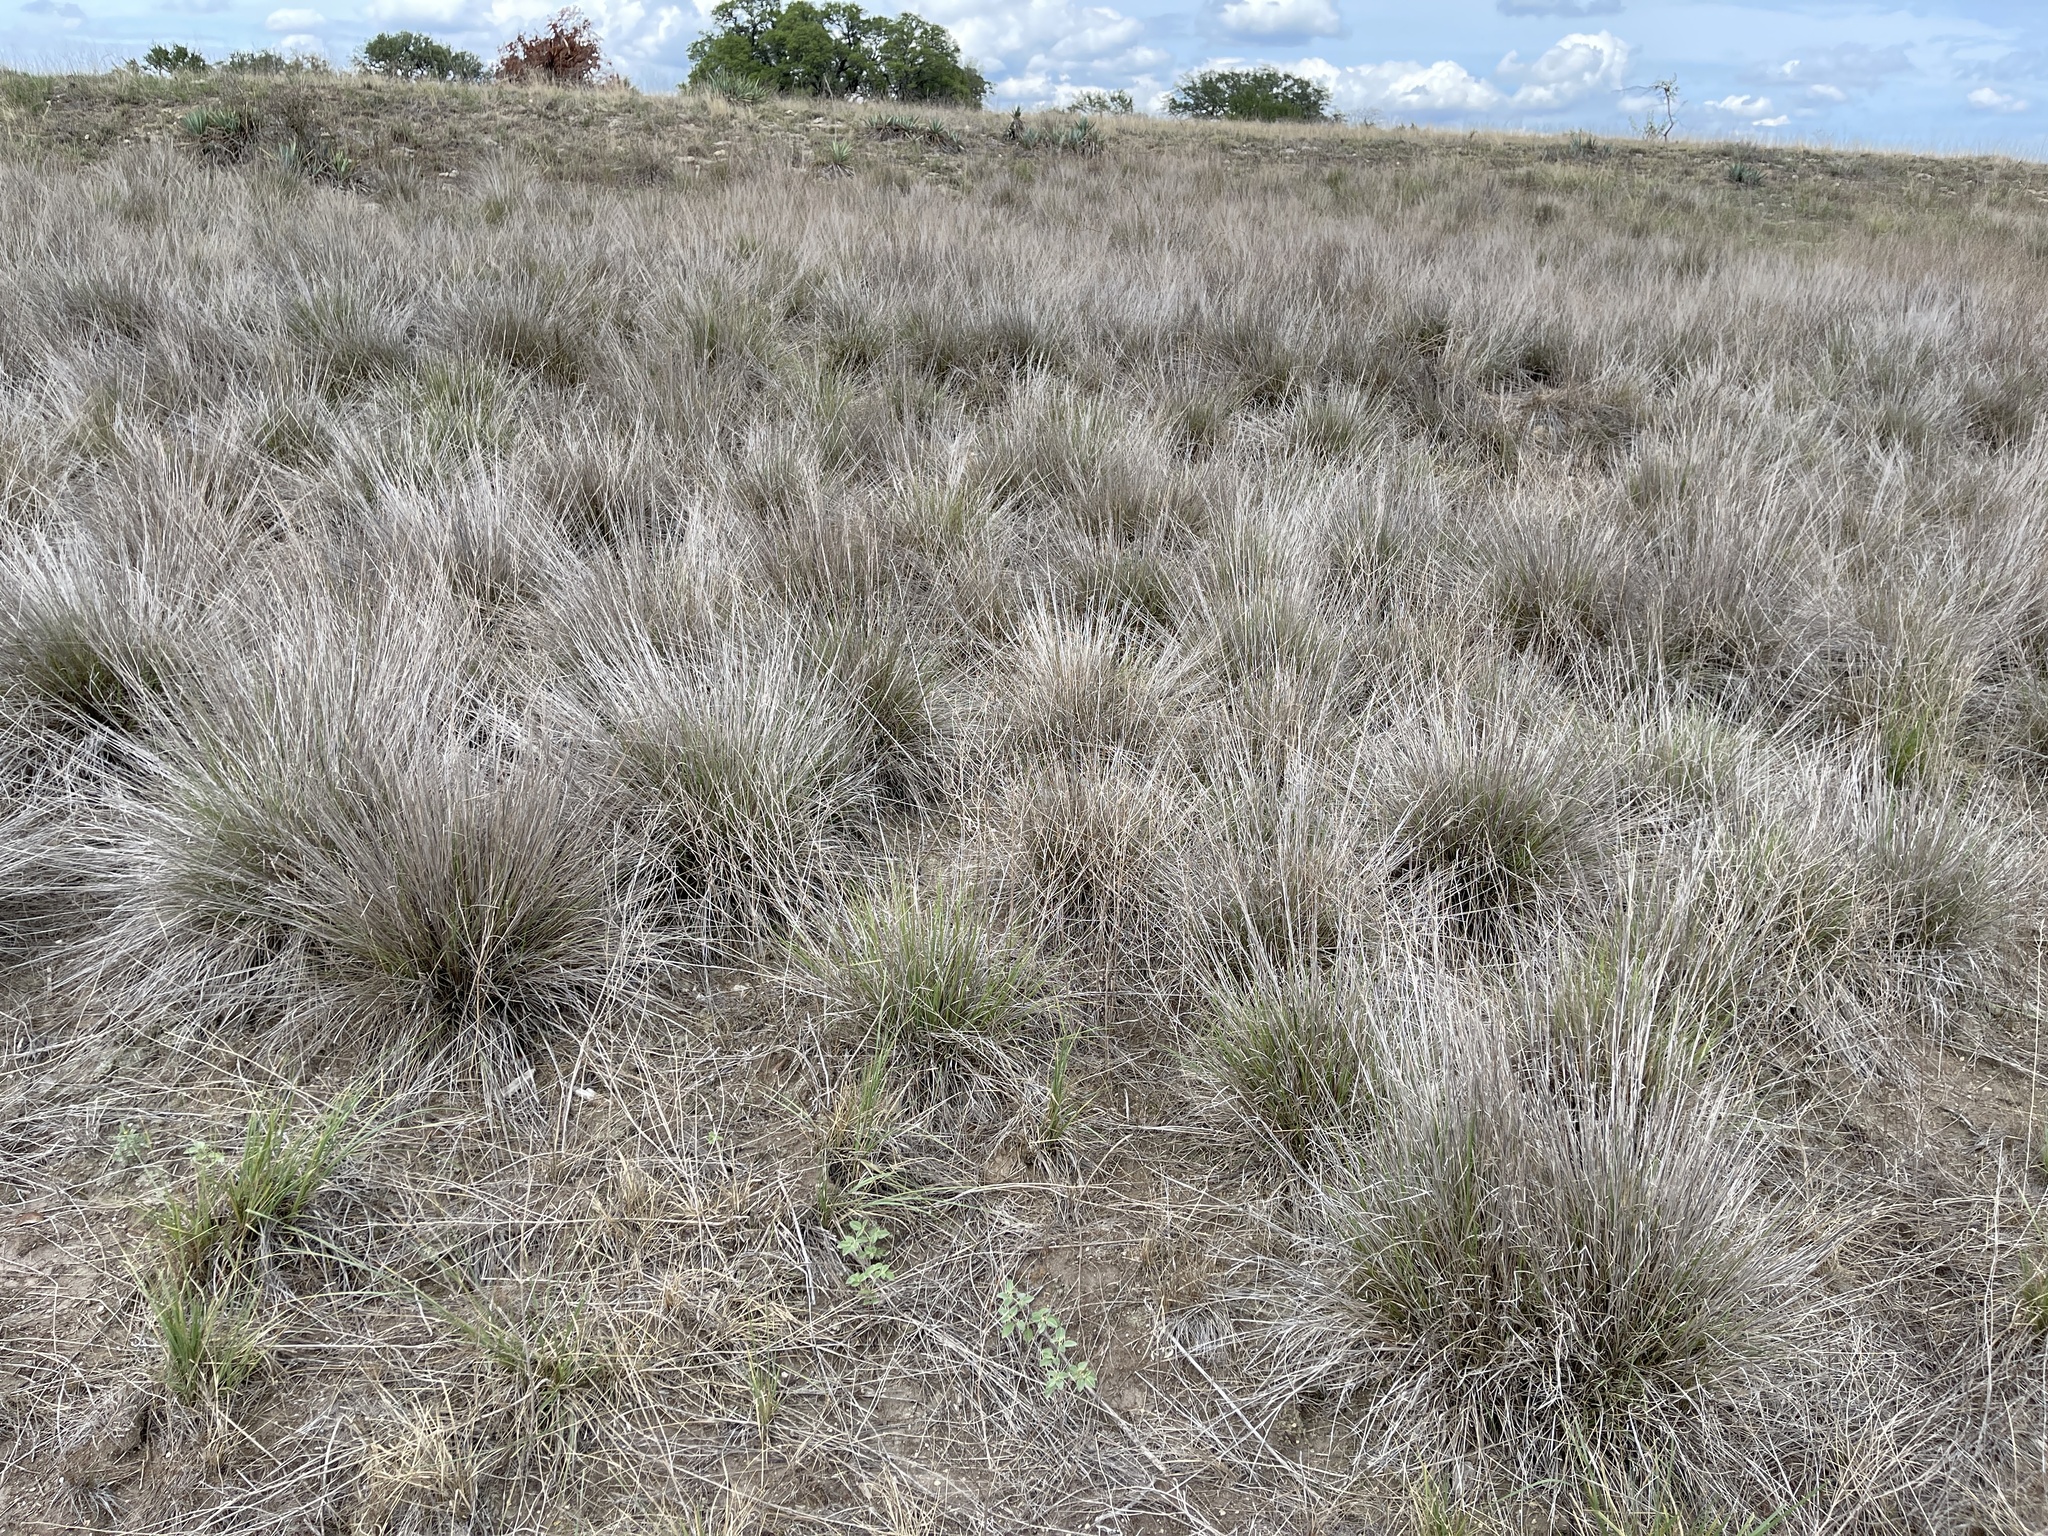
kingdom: Plantae
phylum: Tracheophyta
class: Liliopsida
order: Poales
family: Poaceae
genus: Muhlenbergia
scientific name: Muhlenbergia reverchonii
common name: Seep muhly
